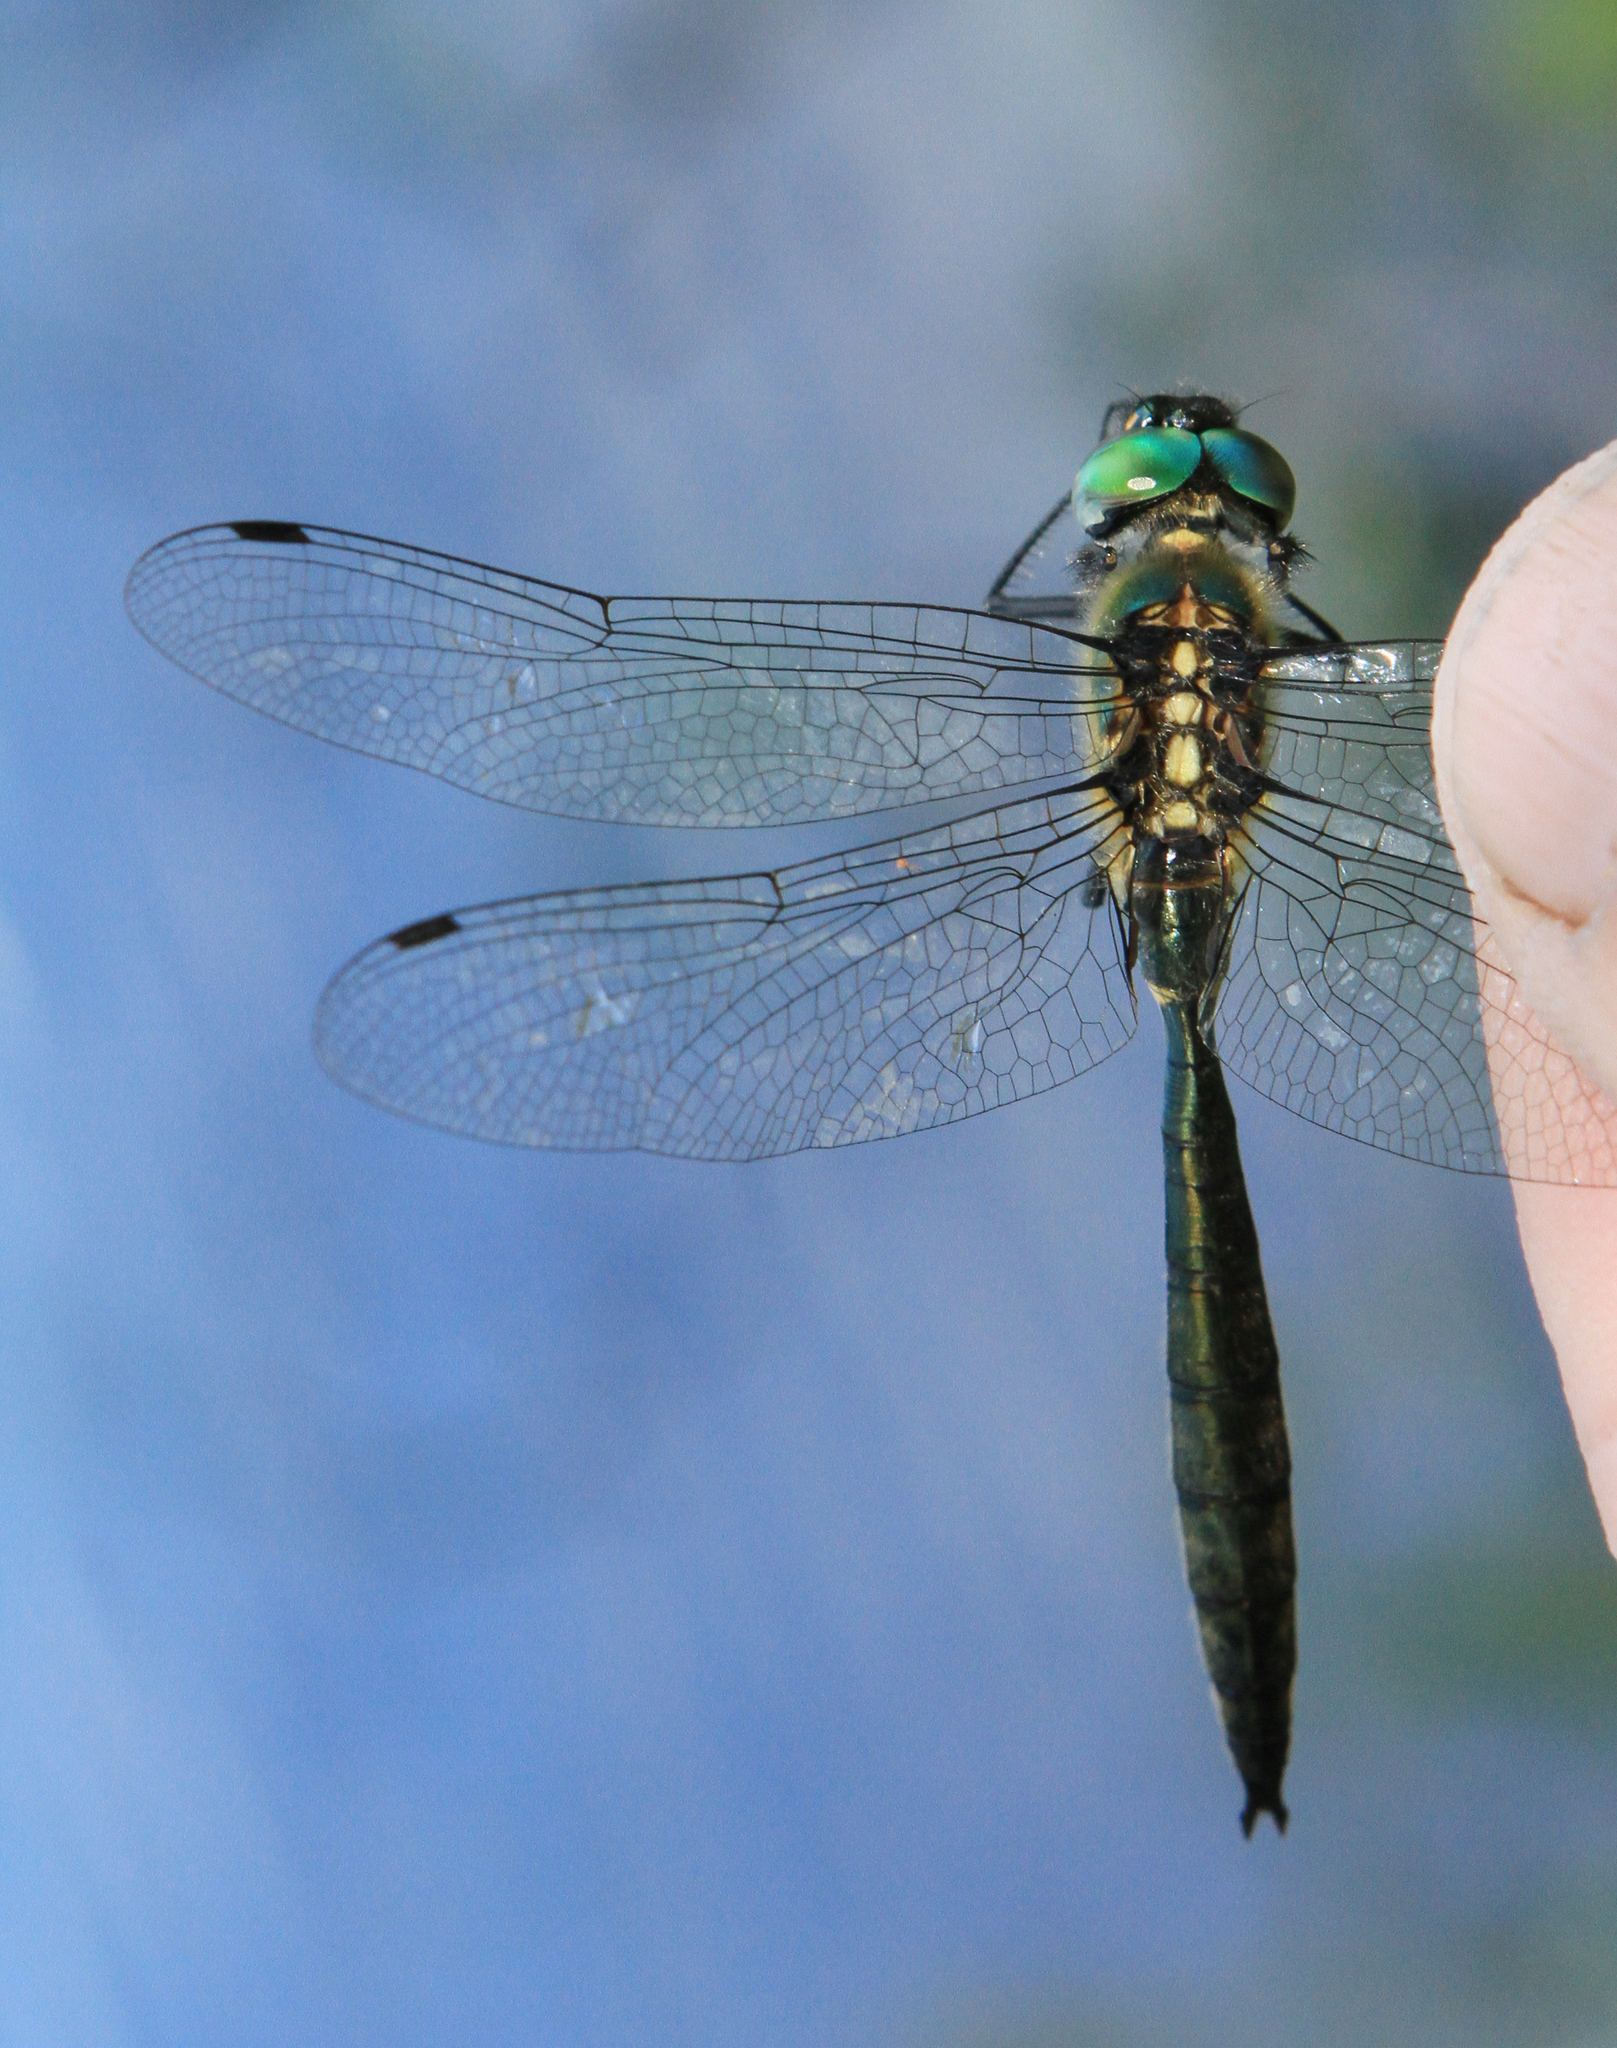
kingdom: Animalia
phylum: Arthropoda
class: Insecta
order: Odonata
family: Corduliidae
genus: Somatochlora
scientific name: Somatochlora graeseri
